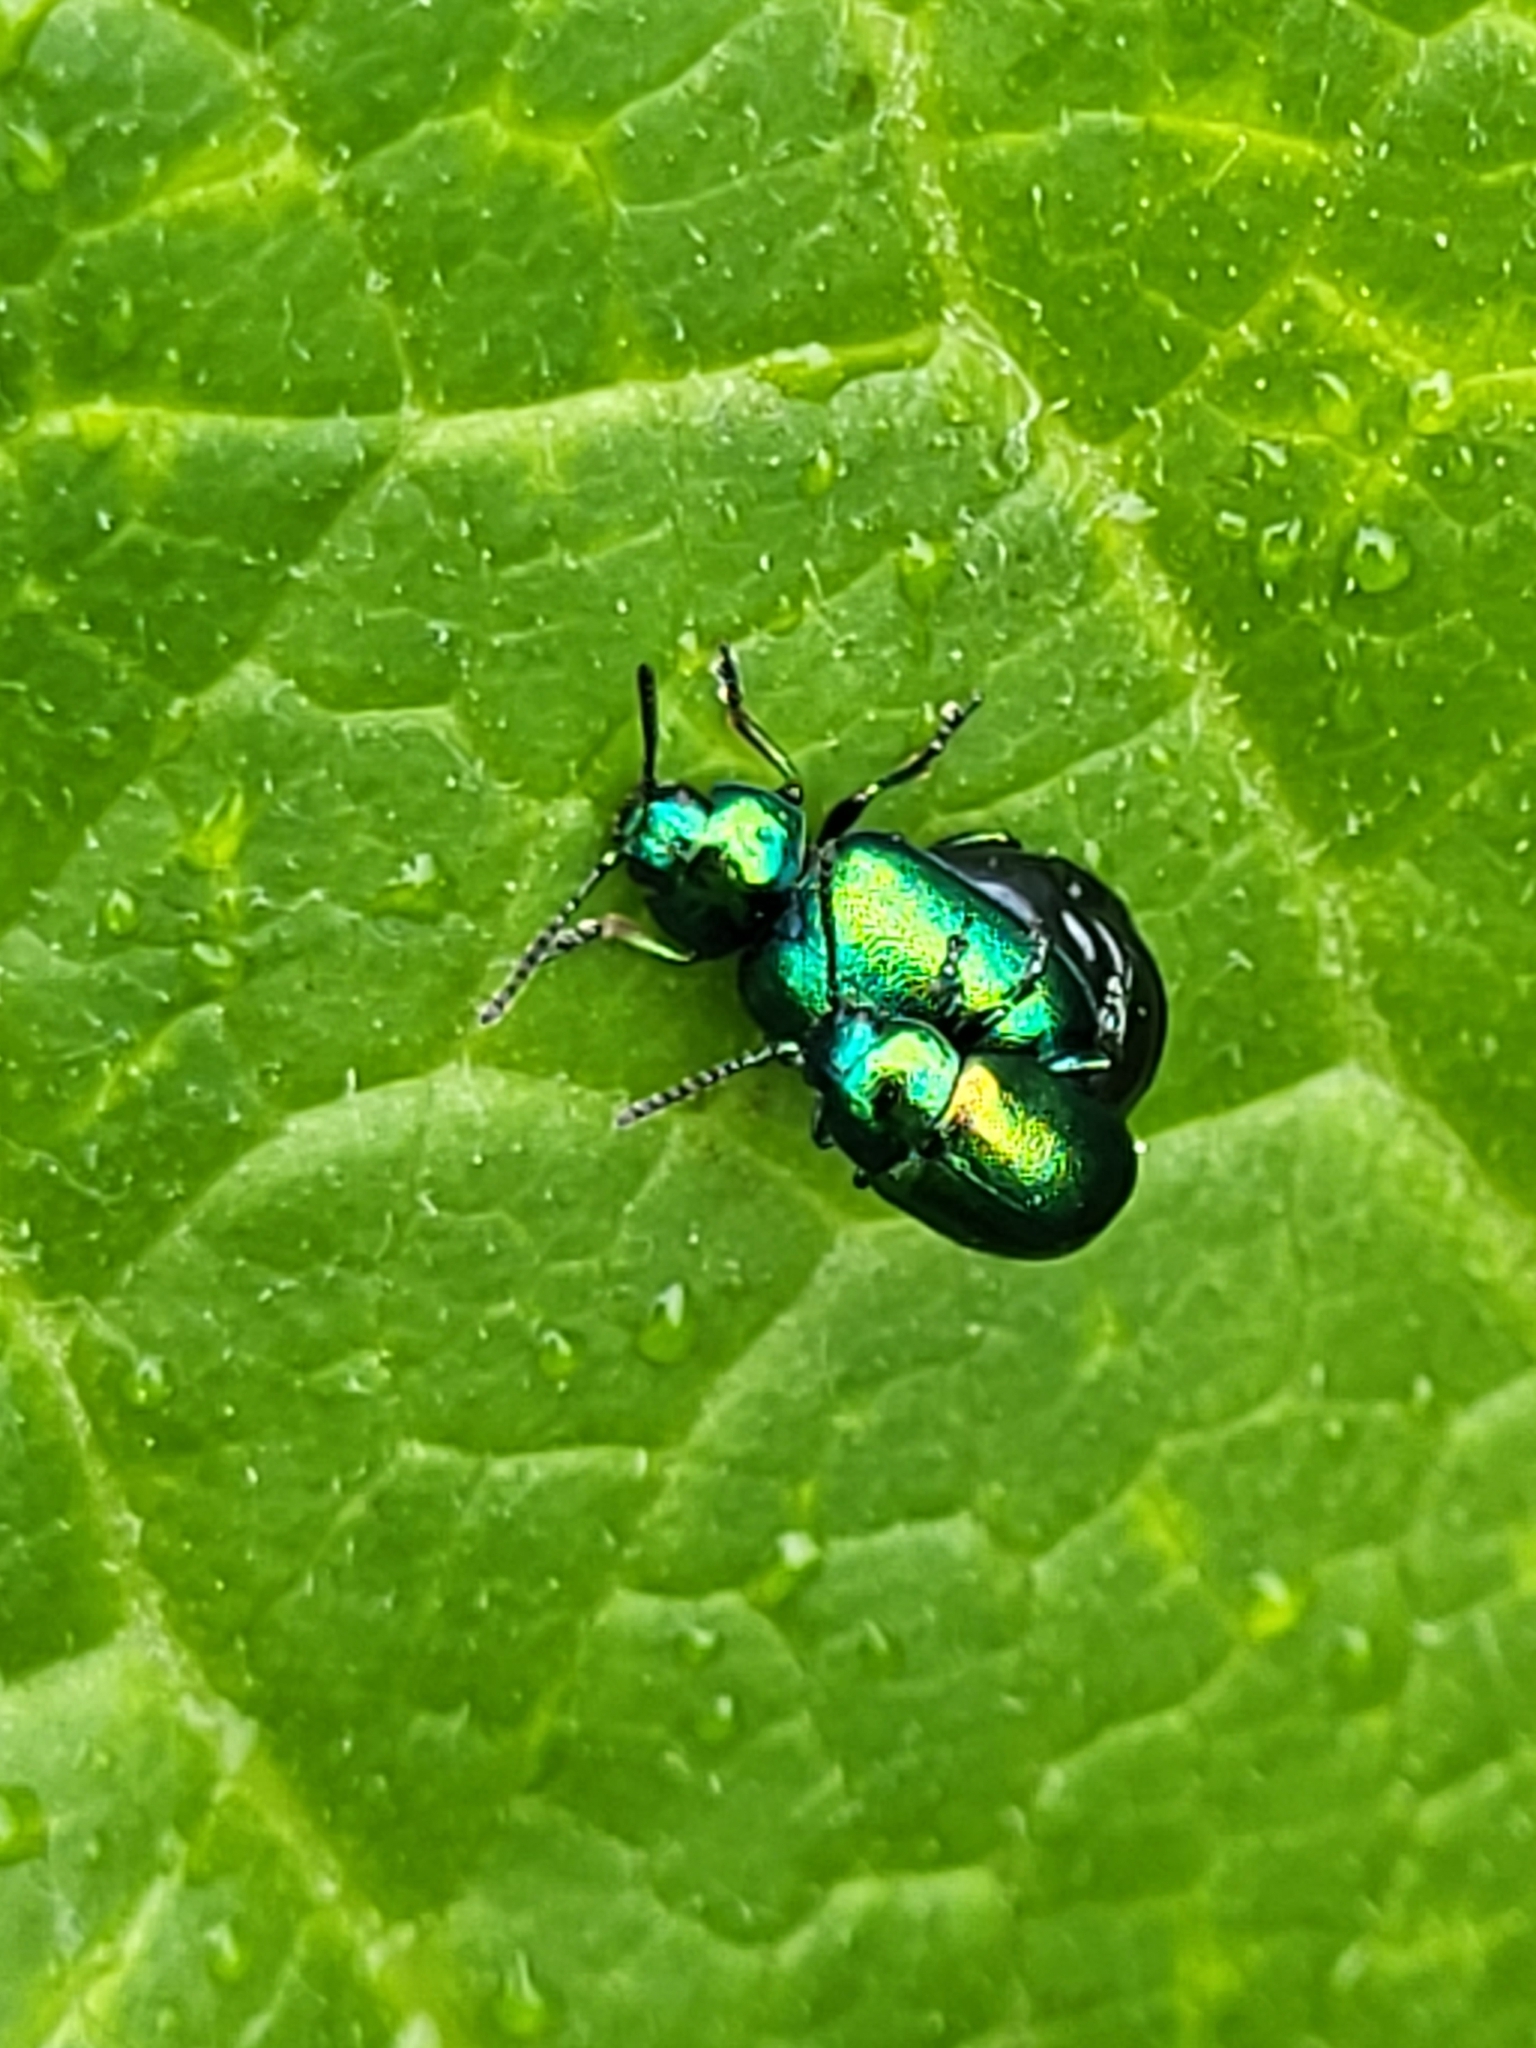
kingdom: Animalia
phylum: Arthropoda
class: Insecta
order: Coleoptera
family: Chrysomelidae
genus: Gastrophysa
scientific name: Gastrophysa viridula
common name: Green dock beetle
